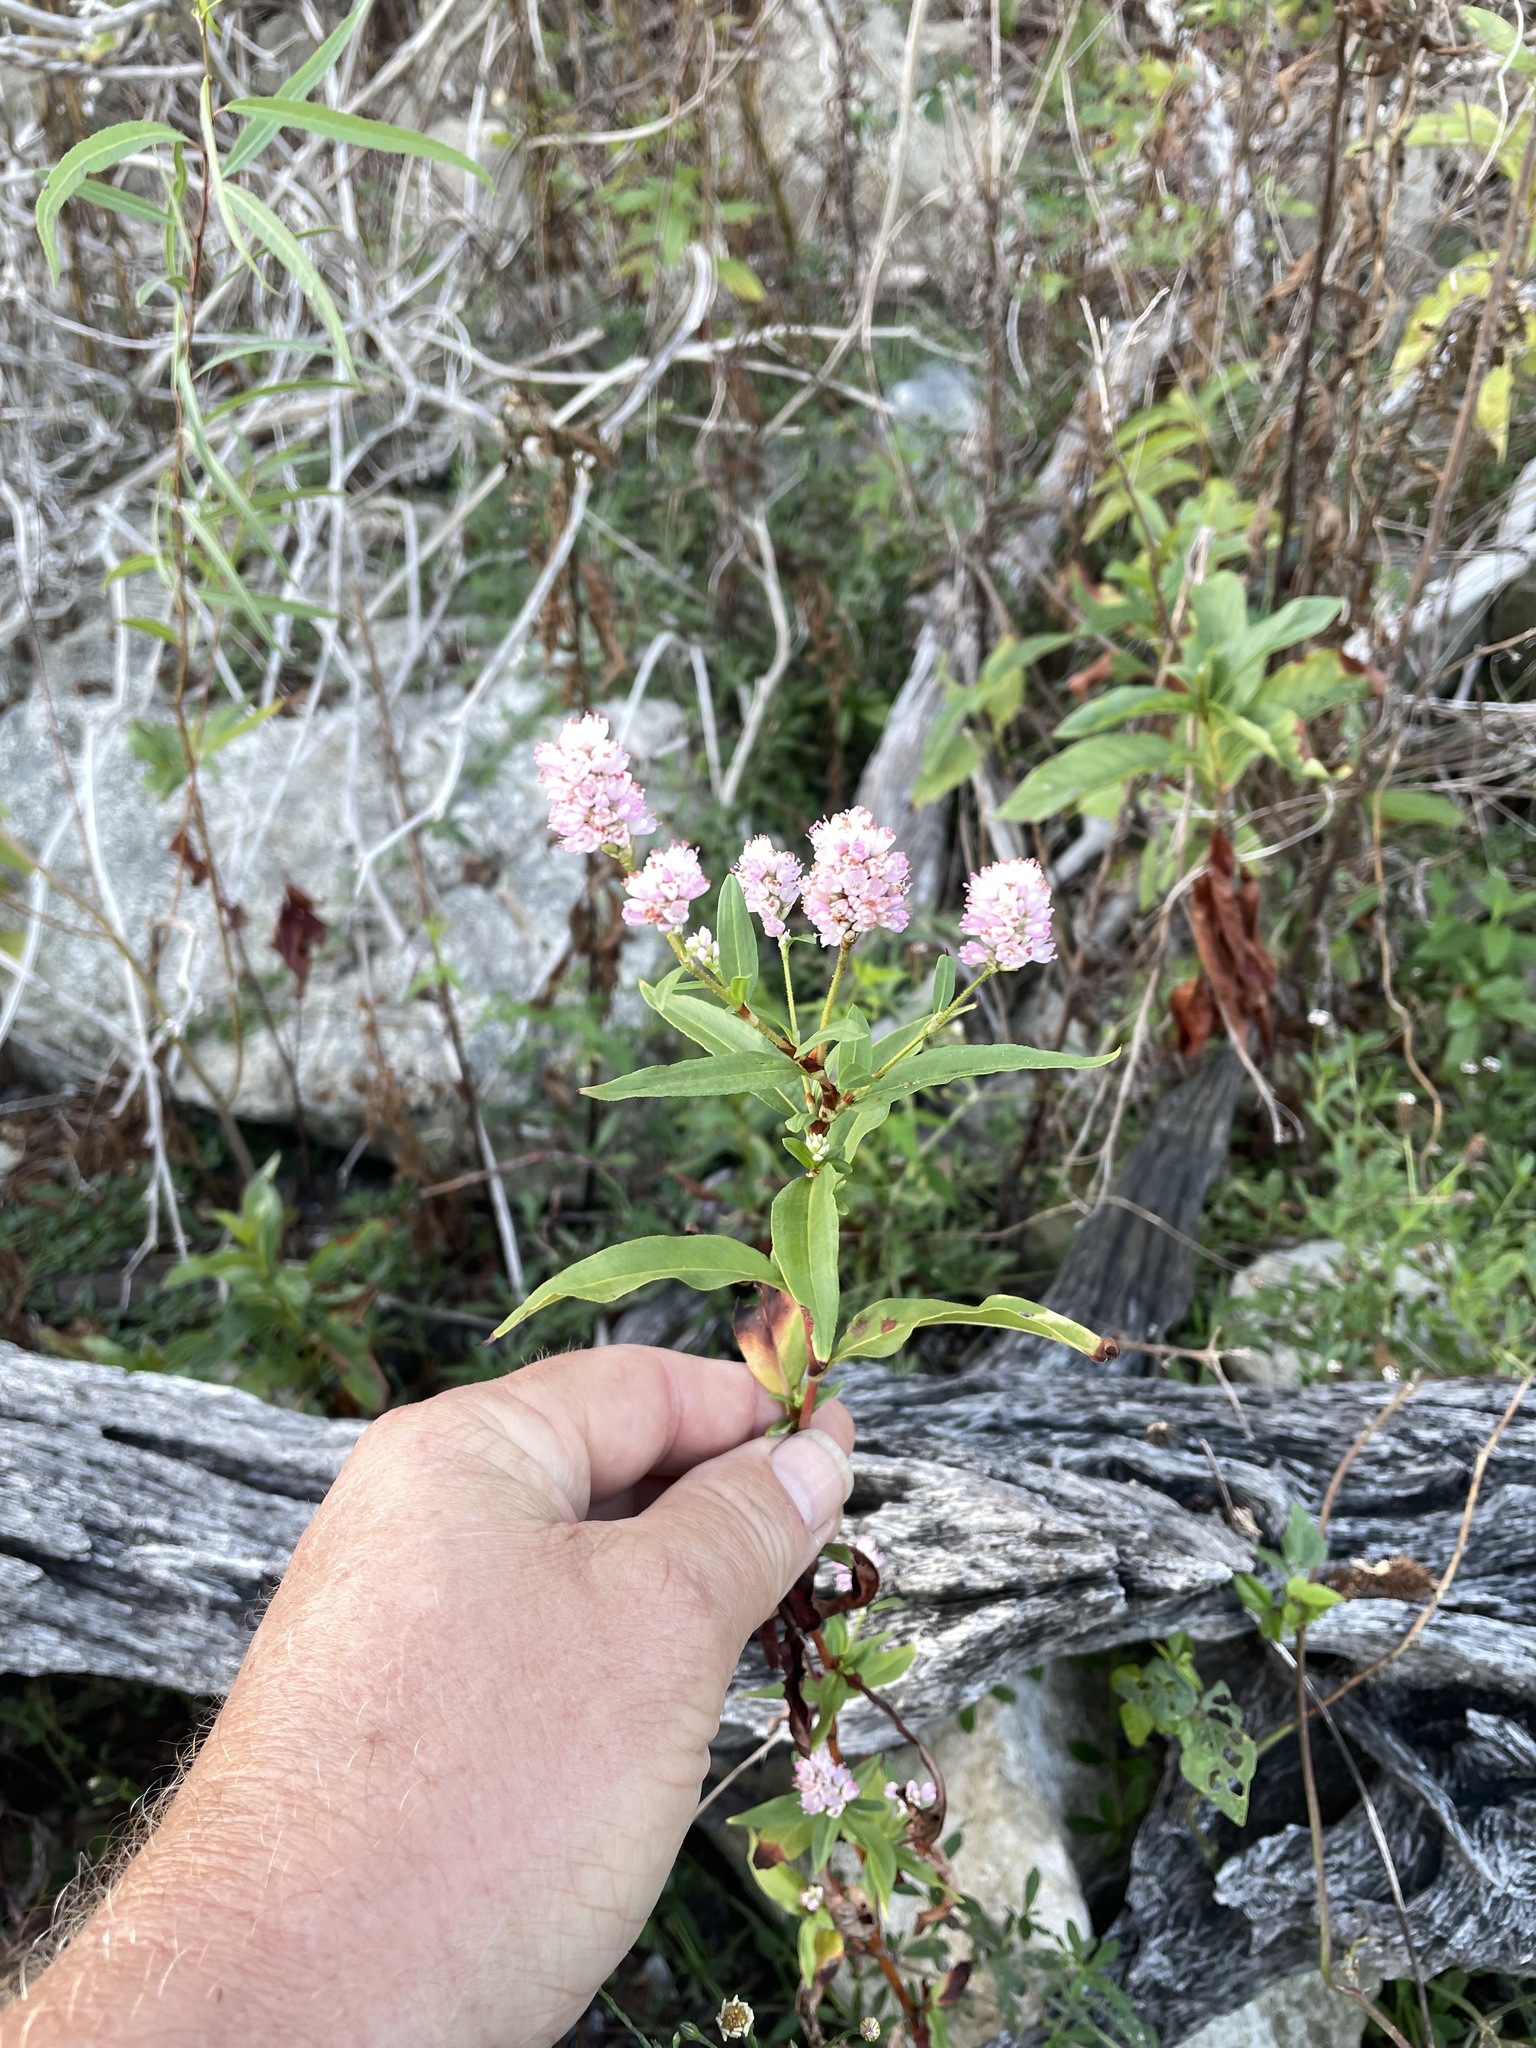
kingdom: Plantae
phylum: Tracheophyta
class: Magnoliopsida
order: Caryophyllales
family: Polygonaceae
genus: Persicaria
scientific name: Persicaria bicornis
